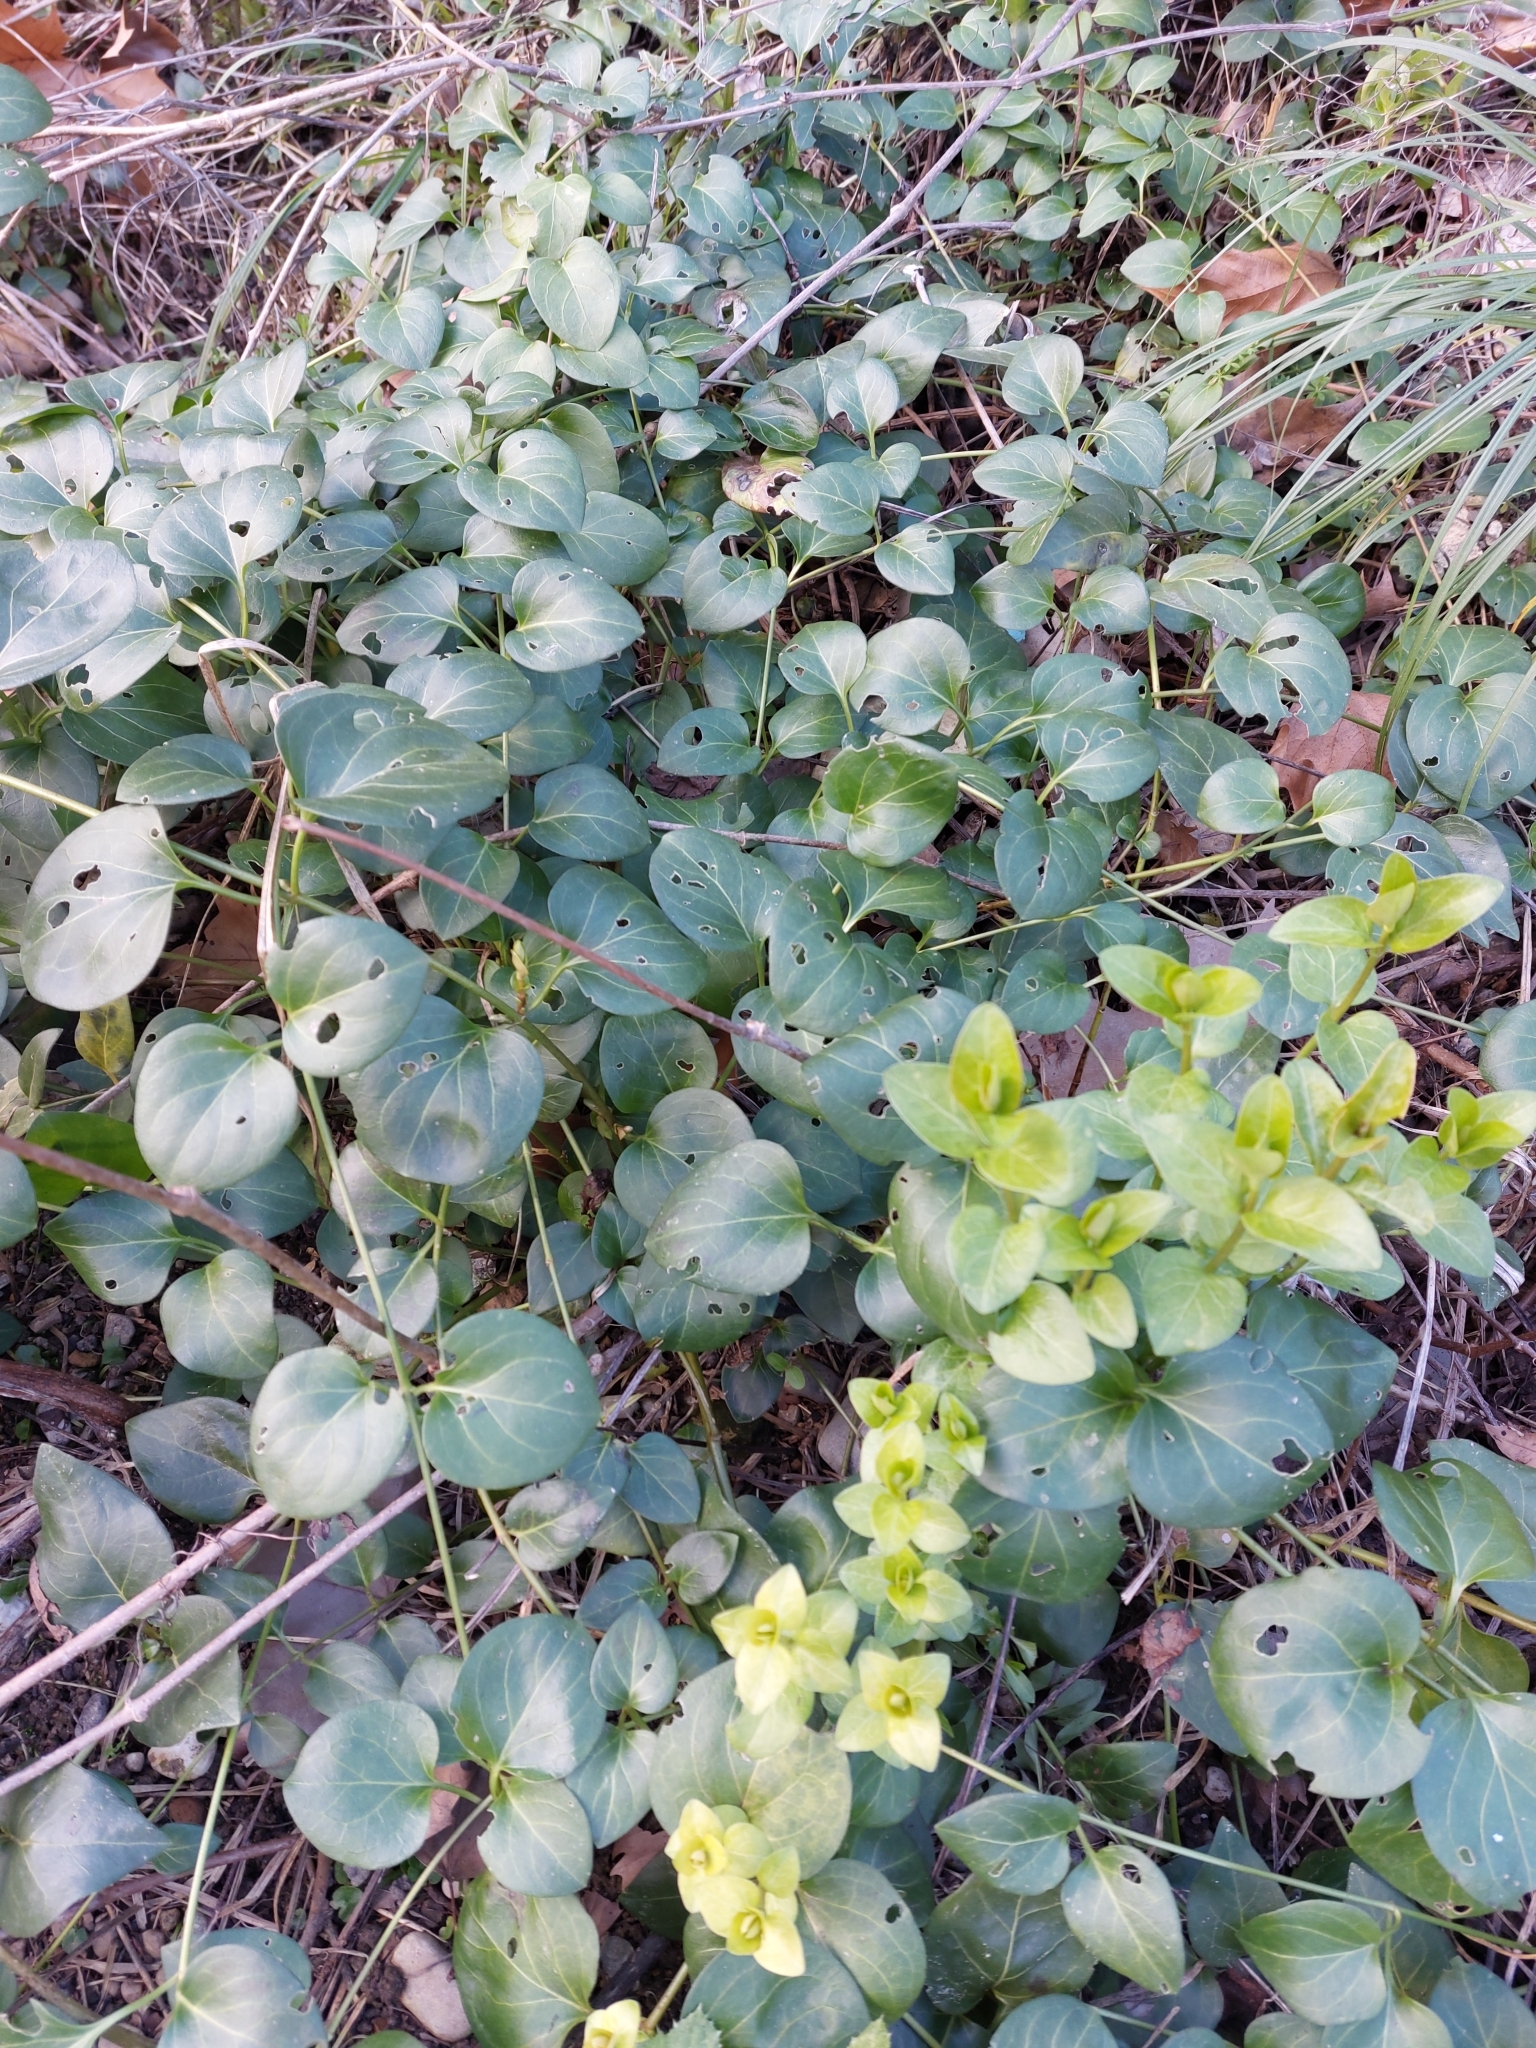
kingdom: Plantae
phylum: Tracheophyta
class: Magnoliopsida
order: Gentianales
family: Apocynaceae
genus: Vinca
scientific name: Vinca major
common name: Greater periwinkle
